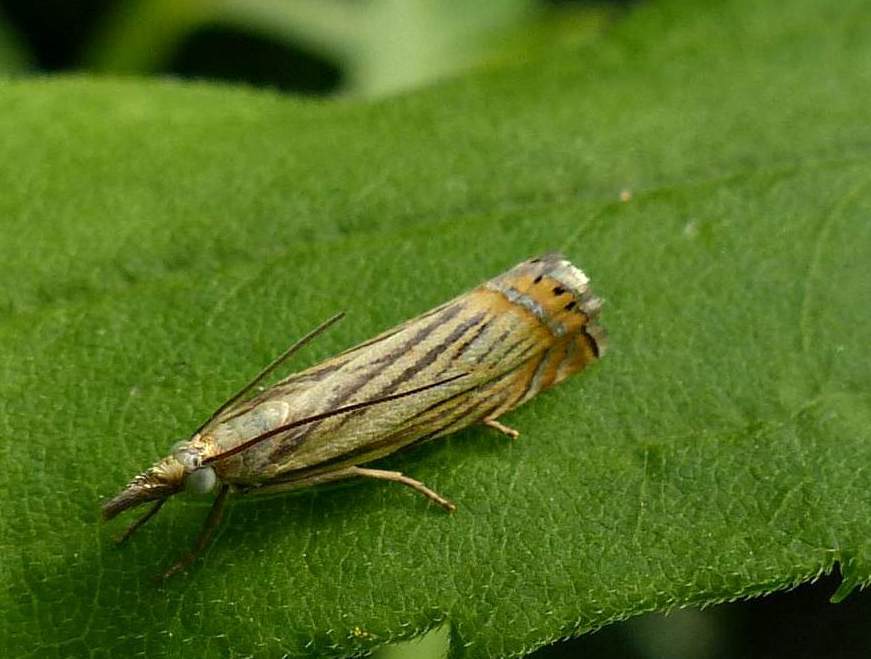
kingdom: Animalia
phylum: Arthropoda
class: Insecta
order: Lepidoptera
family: Crambidae
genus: Chrysoteuchia
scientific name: Chrysoteuchia topiarius
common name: Topiary grass-veneer
